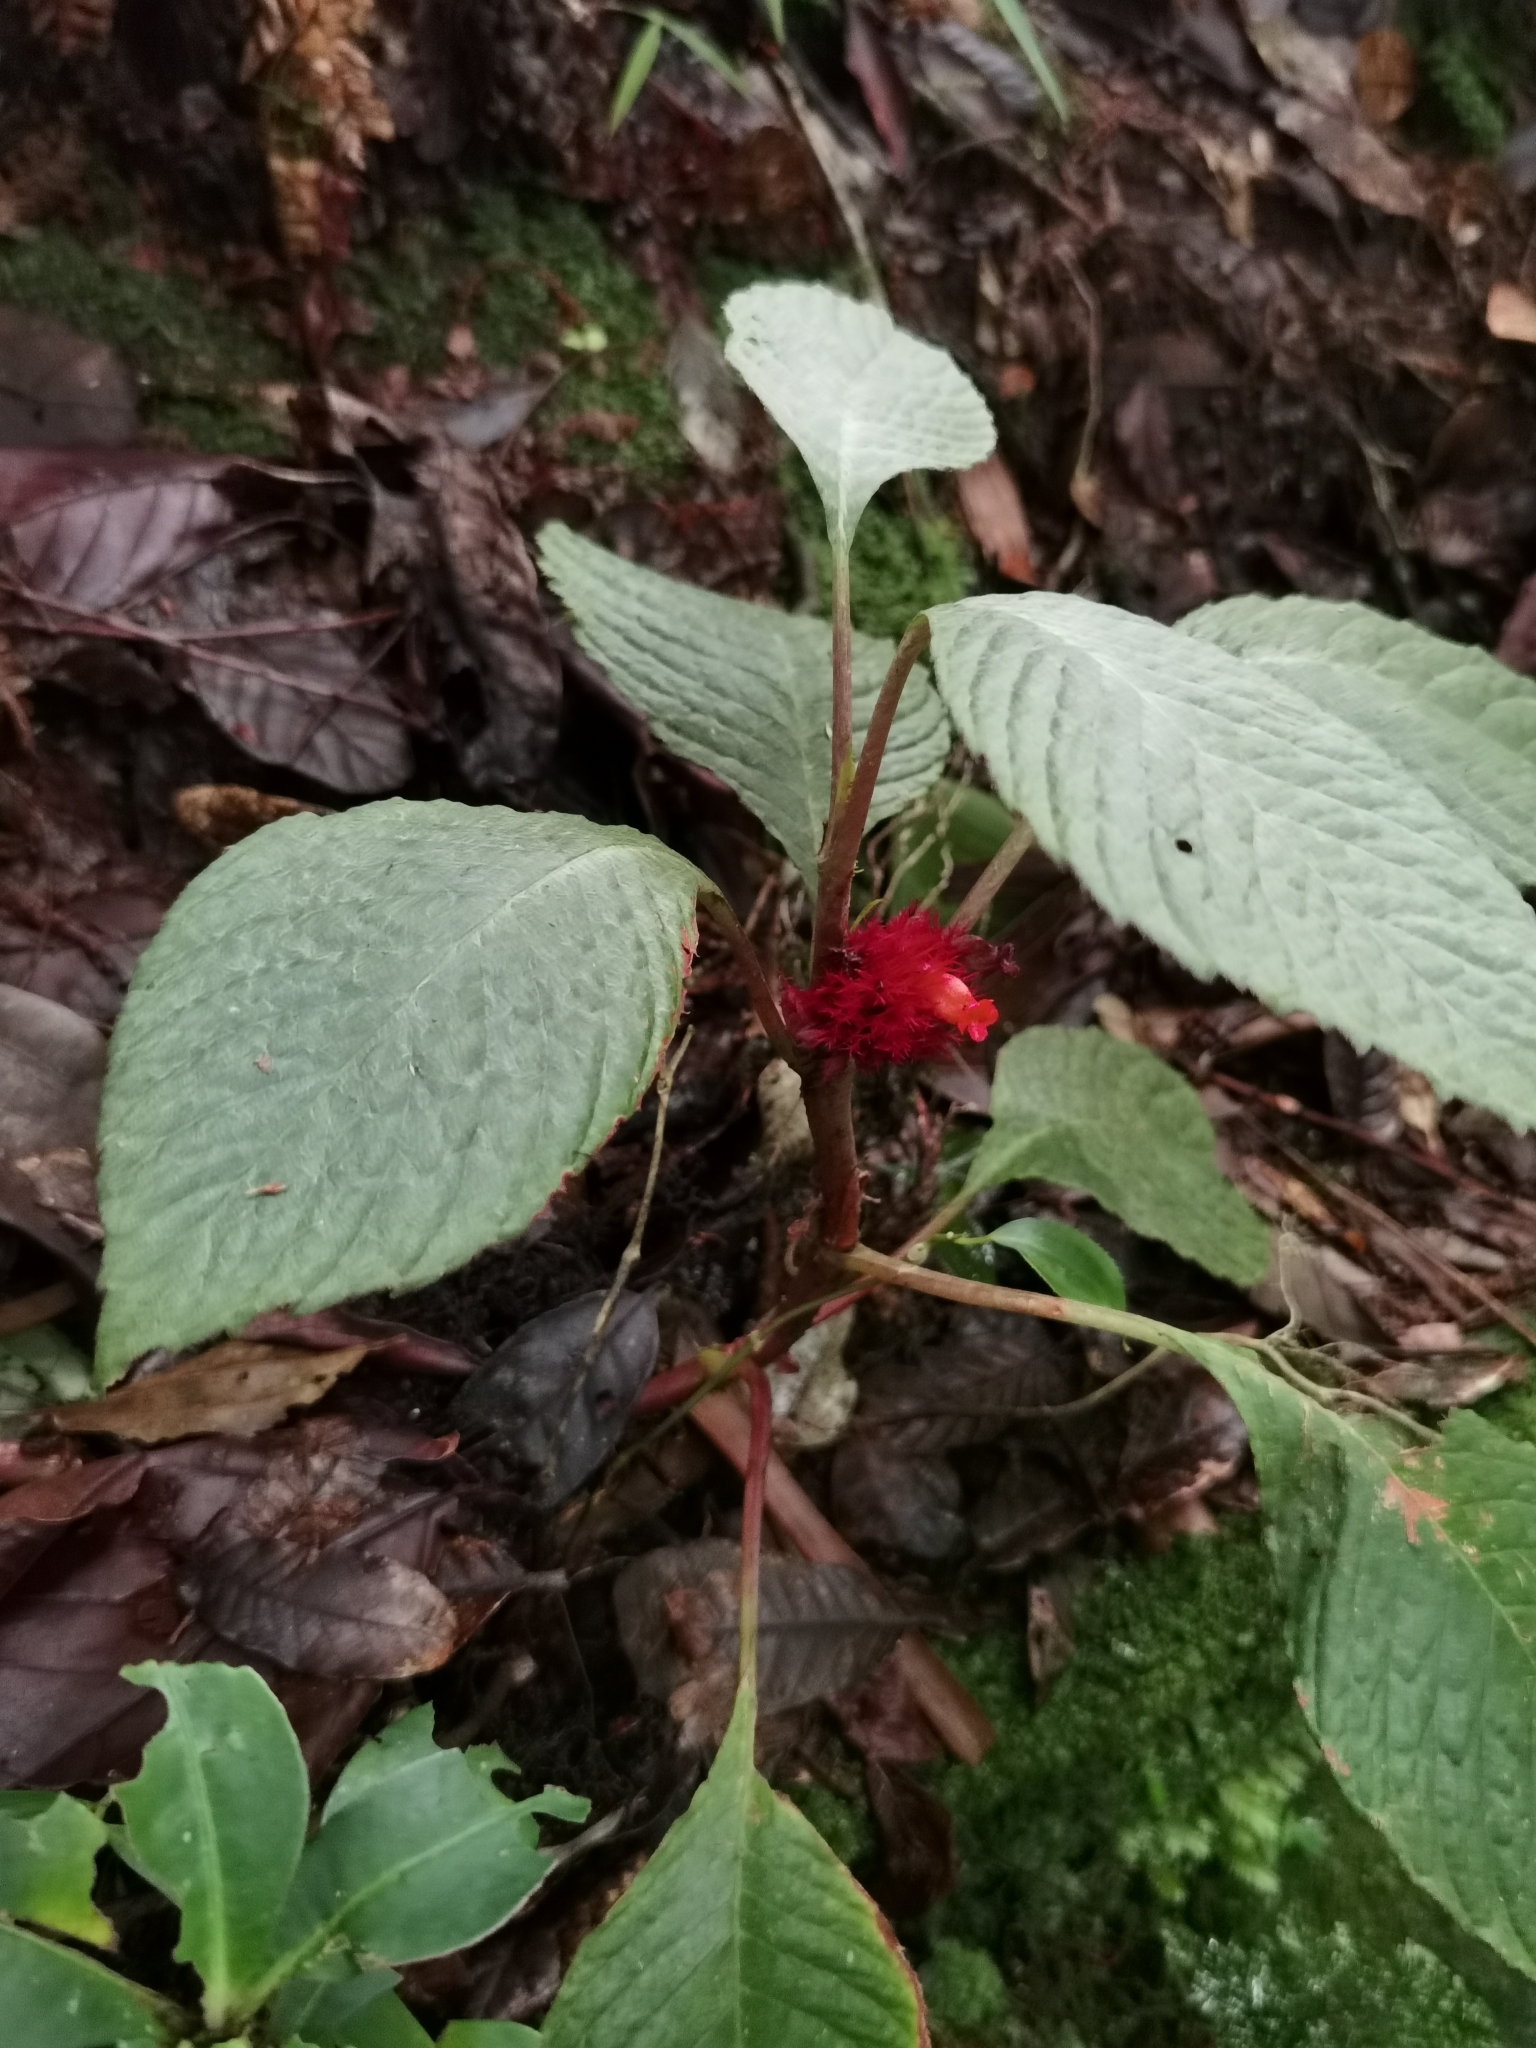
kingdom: Plantae
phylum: Tracheophyta
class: Magnoliopsida
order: Lamiales
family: Gesneriaceae
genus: Trichodrymonia
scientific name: Trichodrymonia metamorphophylla
